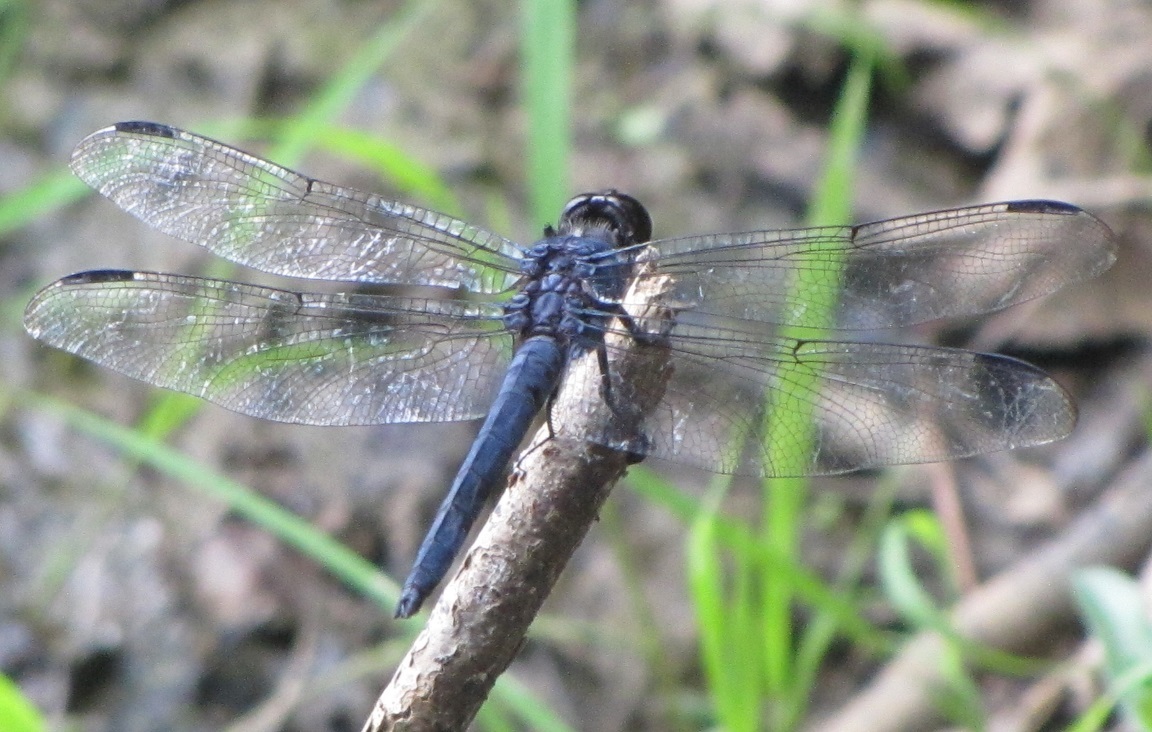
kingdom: Animalia
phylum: Arthropoda
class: Insecta
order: Odonata
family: Libellulidae
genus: Libellula
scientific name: Libellula incesta
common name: Slaty skimmer
